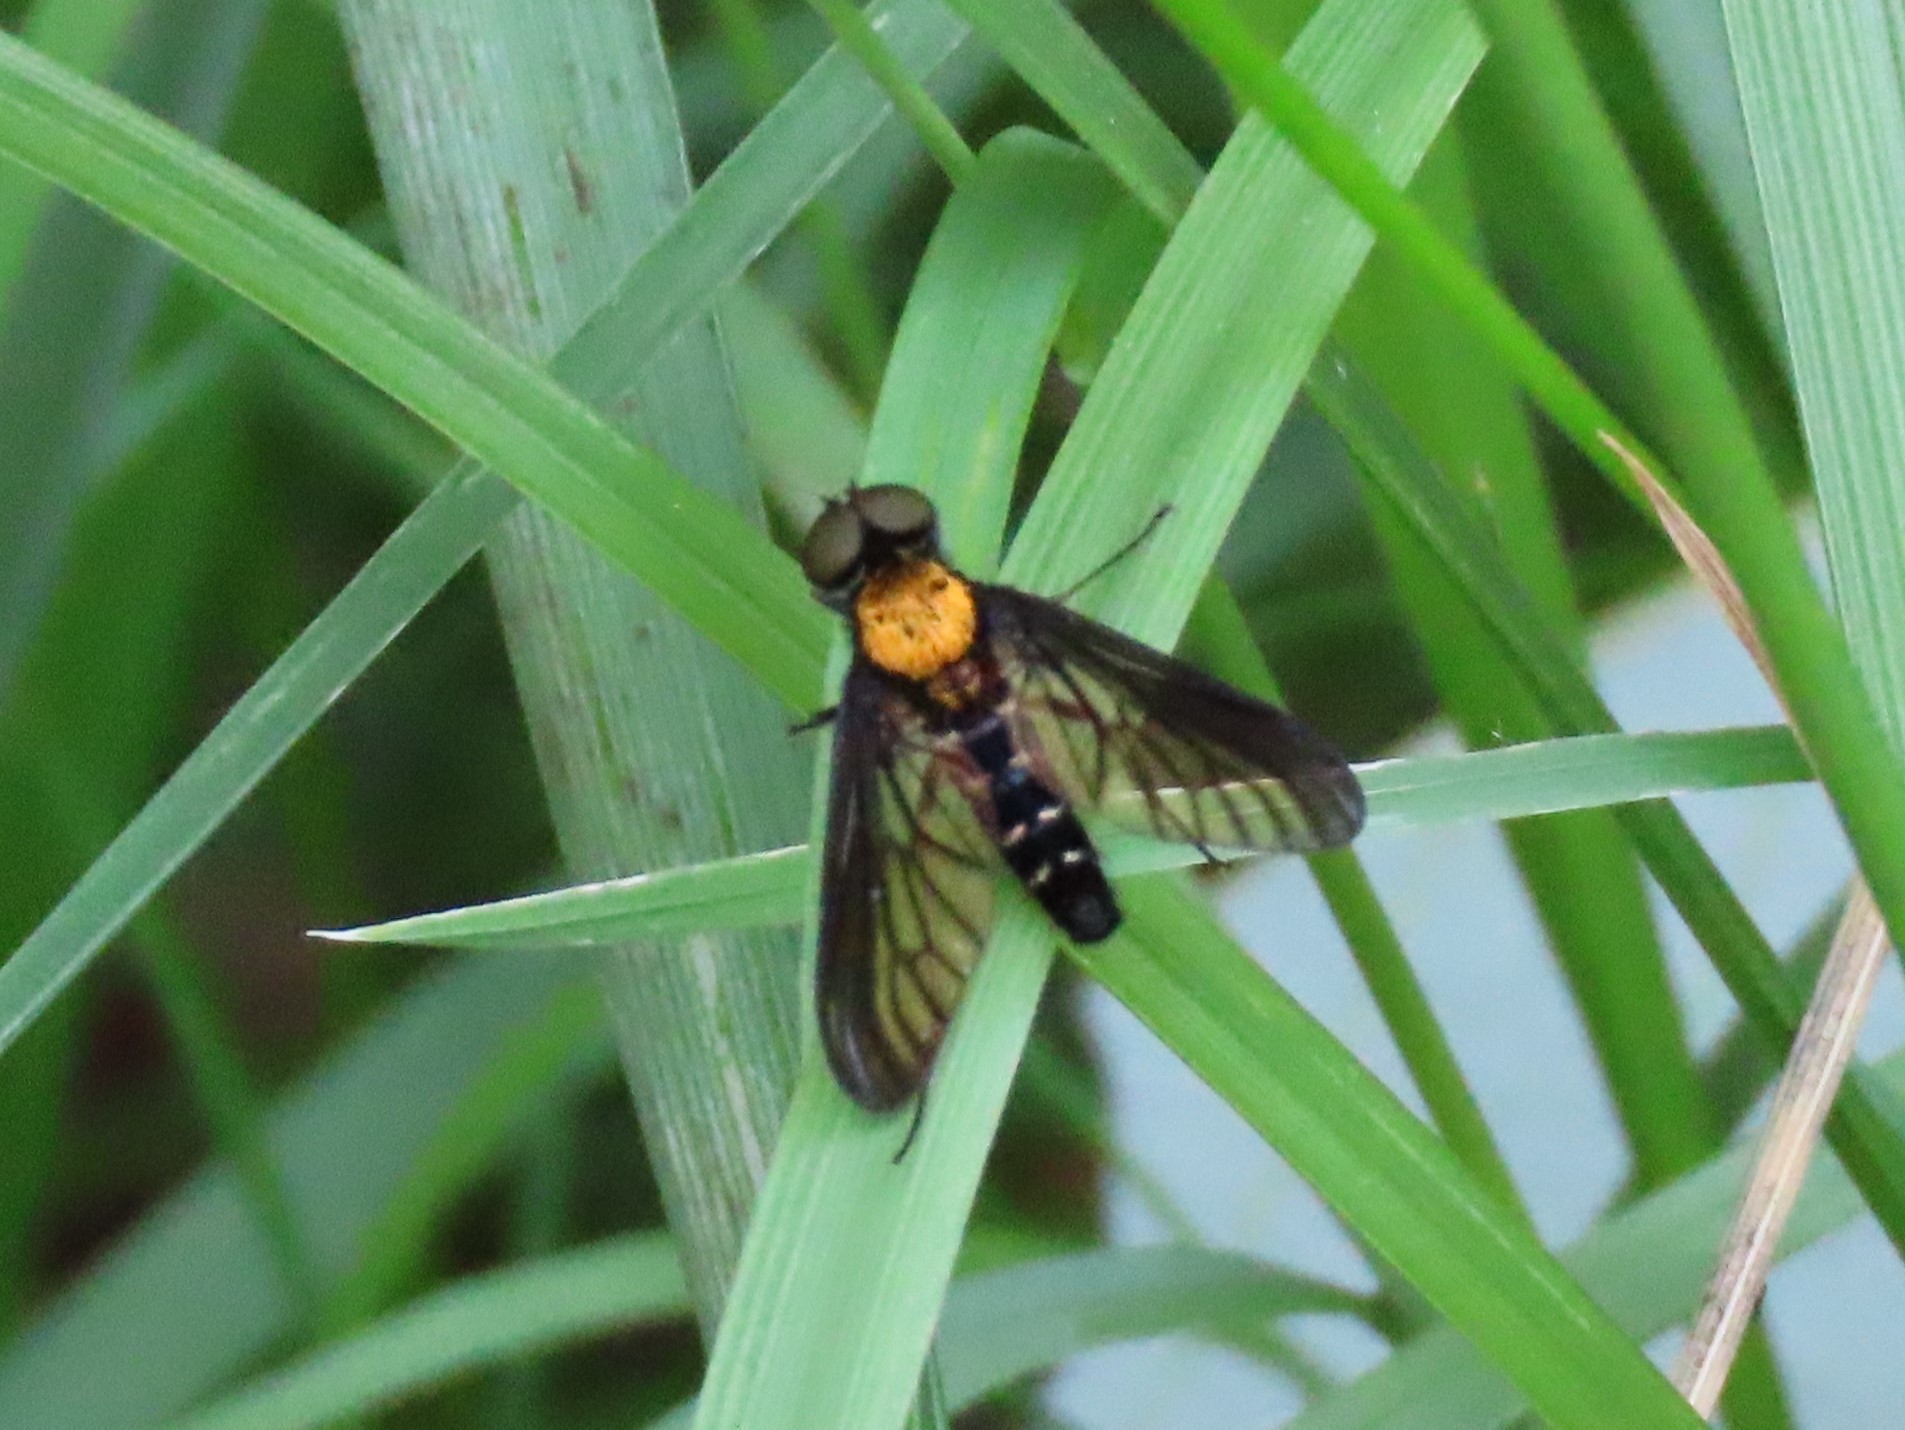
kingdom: Animalia
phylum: Arthropoda
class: Insecta
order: Diptera
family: Rhagionidae
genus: Chrysopilus
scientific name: Chrysopilus thoracicus
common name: Golden-backed snipe fly
